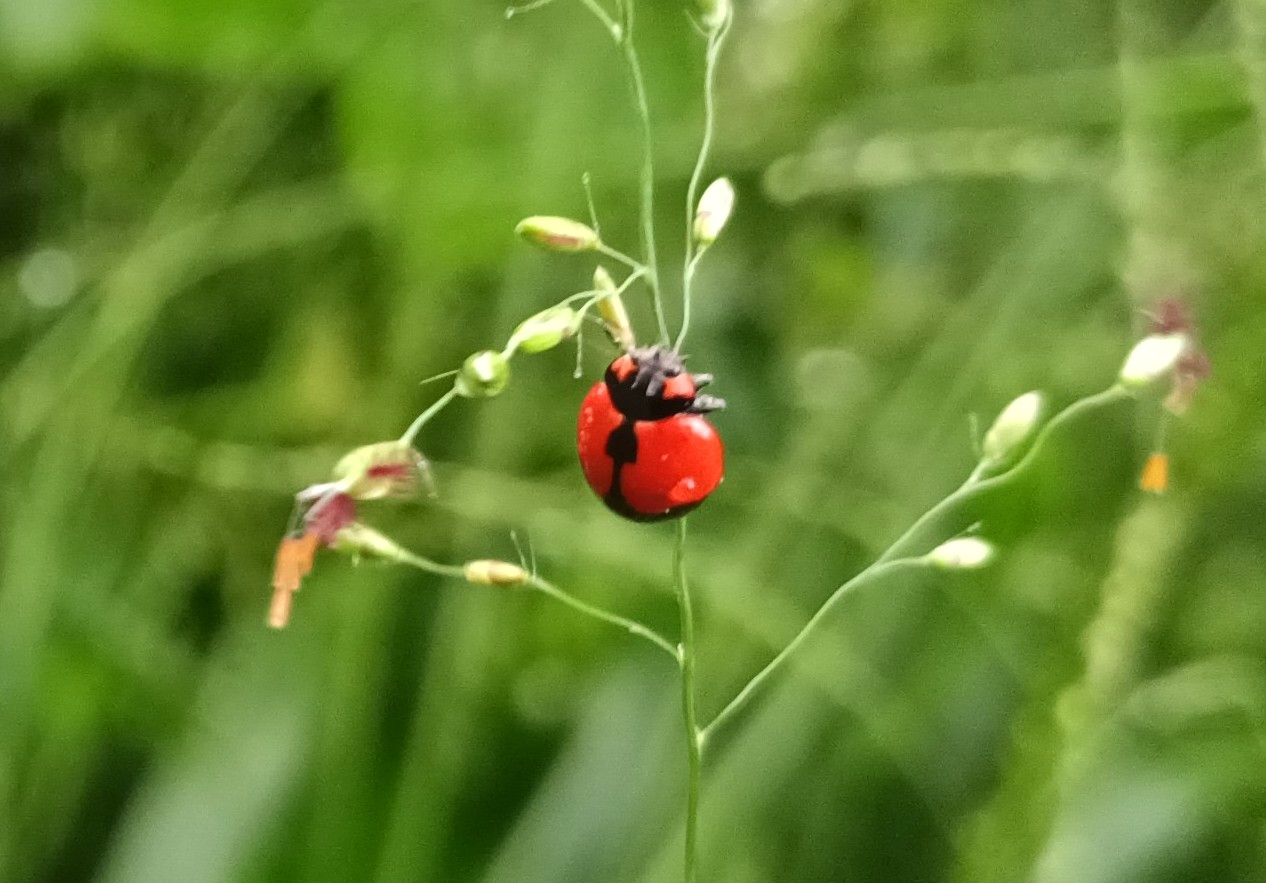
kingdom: Animalia
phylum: Arthropoda
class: Insecta
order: Coleoptera
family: Coccinellidae
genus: Coccinella
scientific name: Coccinella transversalis
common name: Transverse lady beetle
